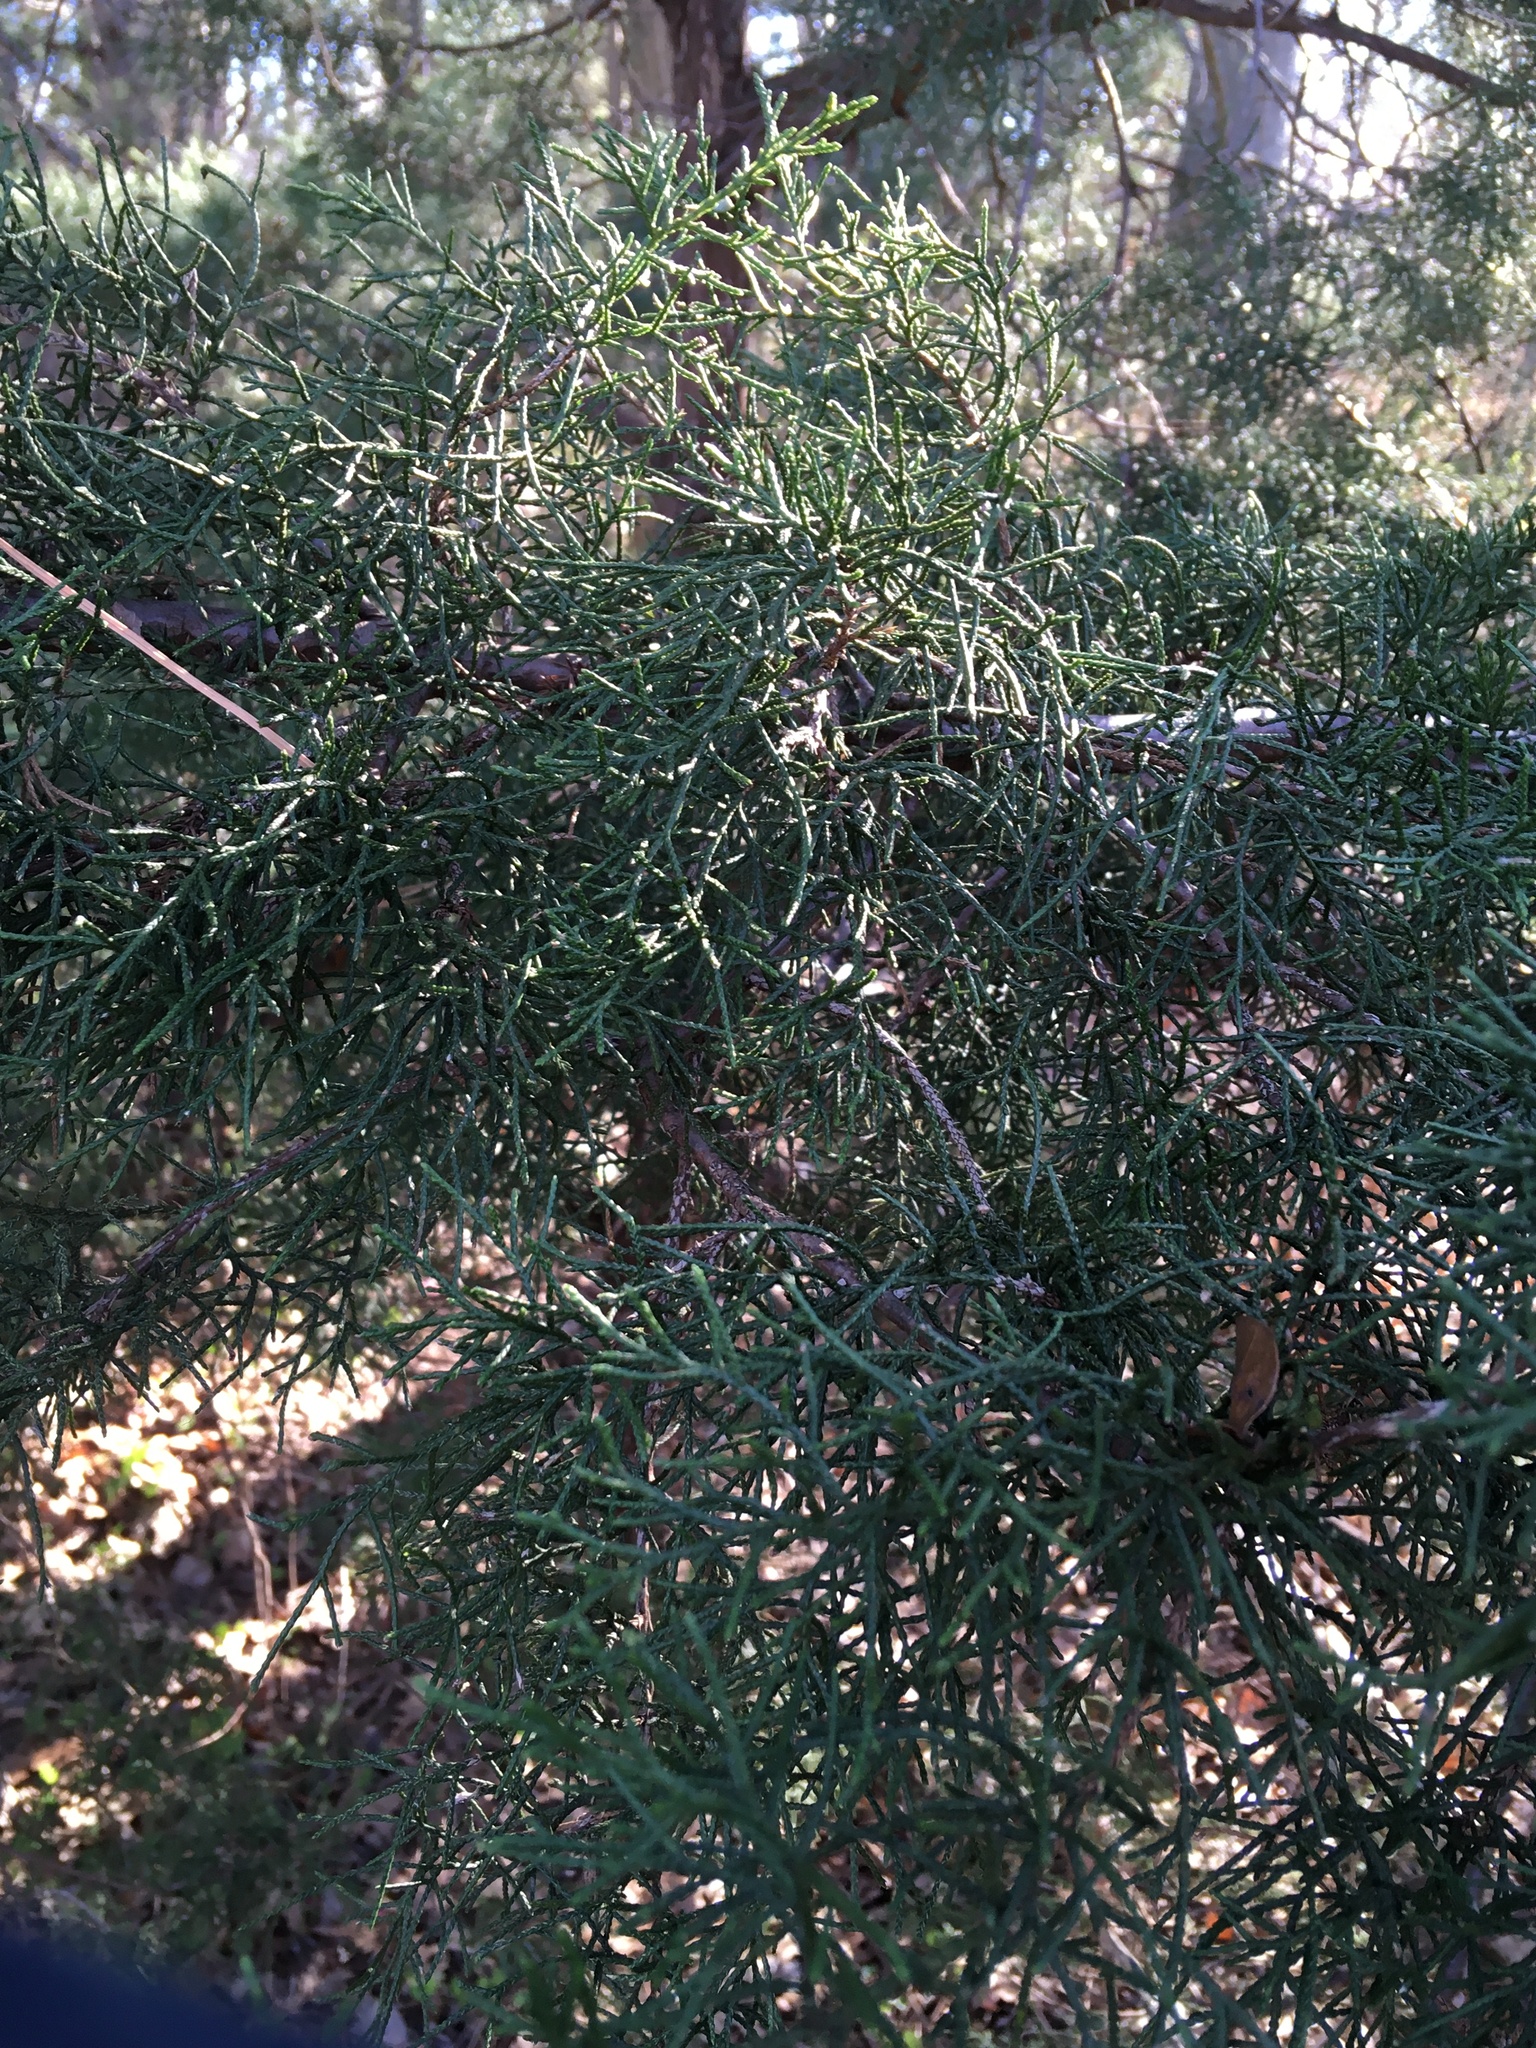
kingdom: Plantae
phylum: Tracheophyta
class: Pinopsida
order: Pinales
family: Cupressaceae
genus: Juniperus
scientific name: Juniperus virginiana
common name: Red juniper
